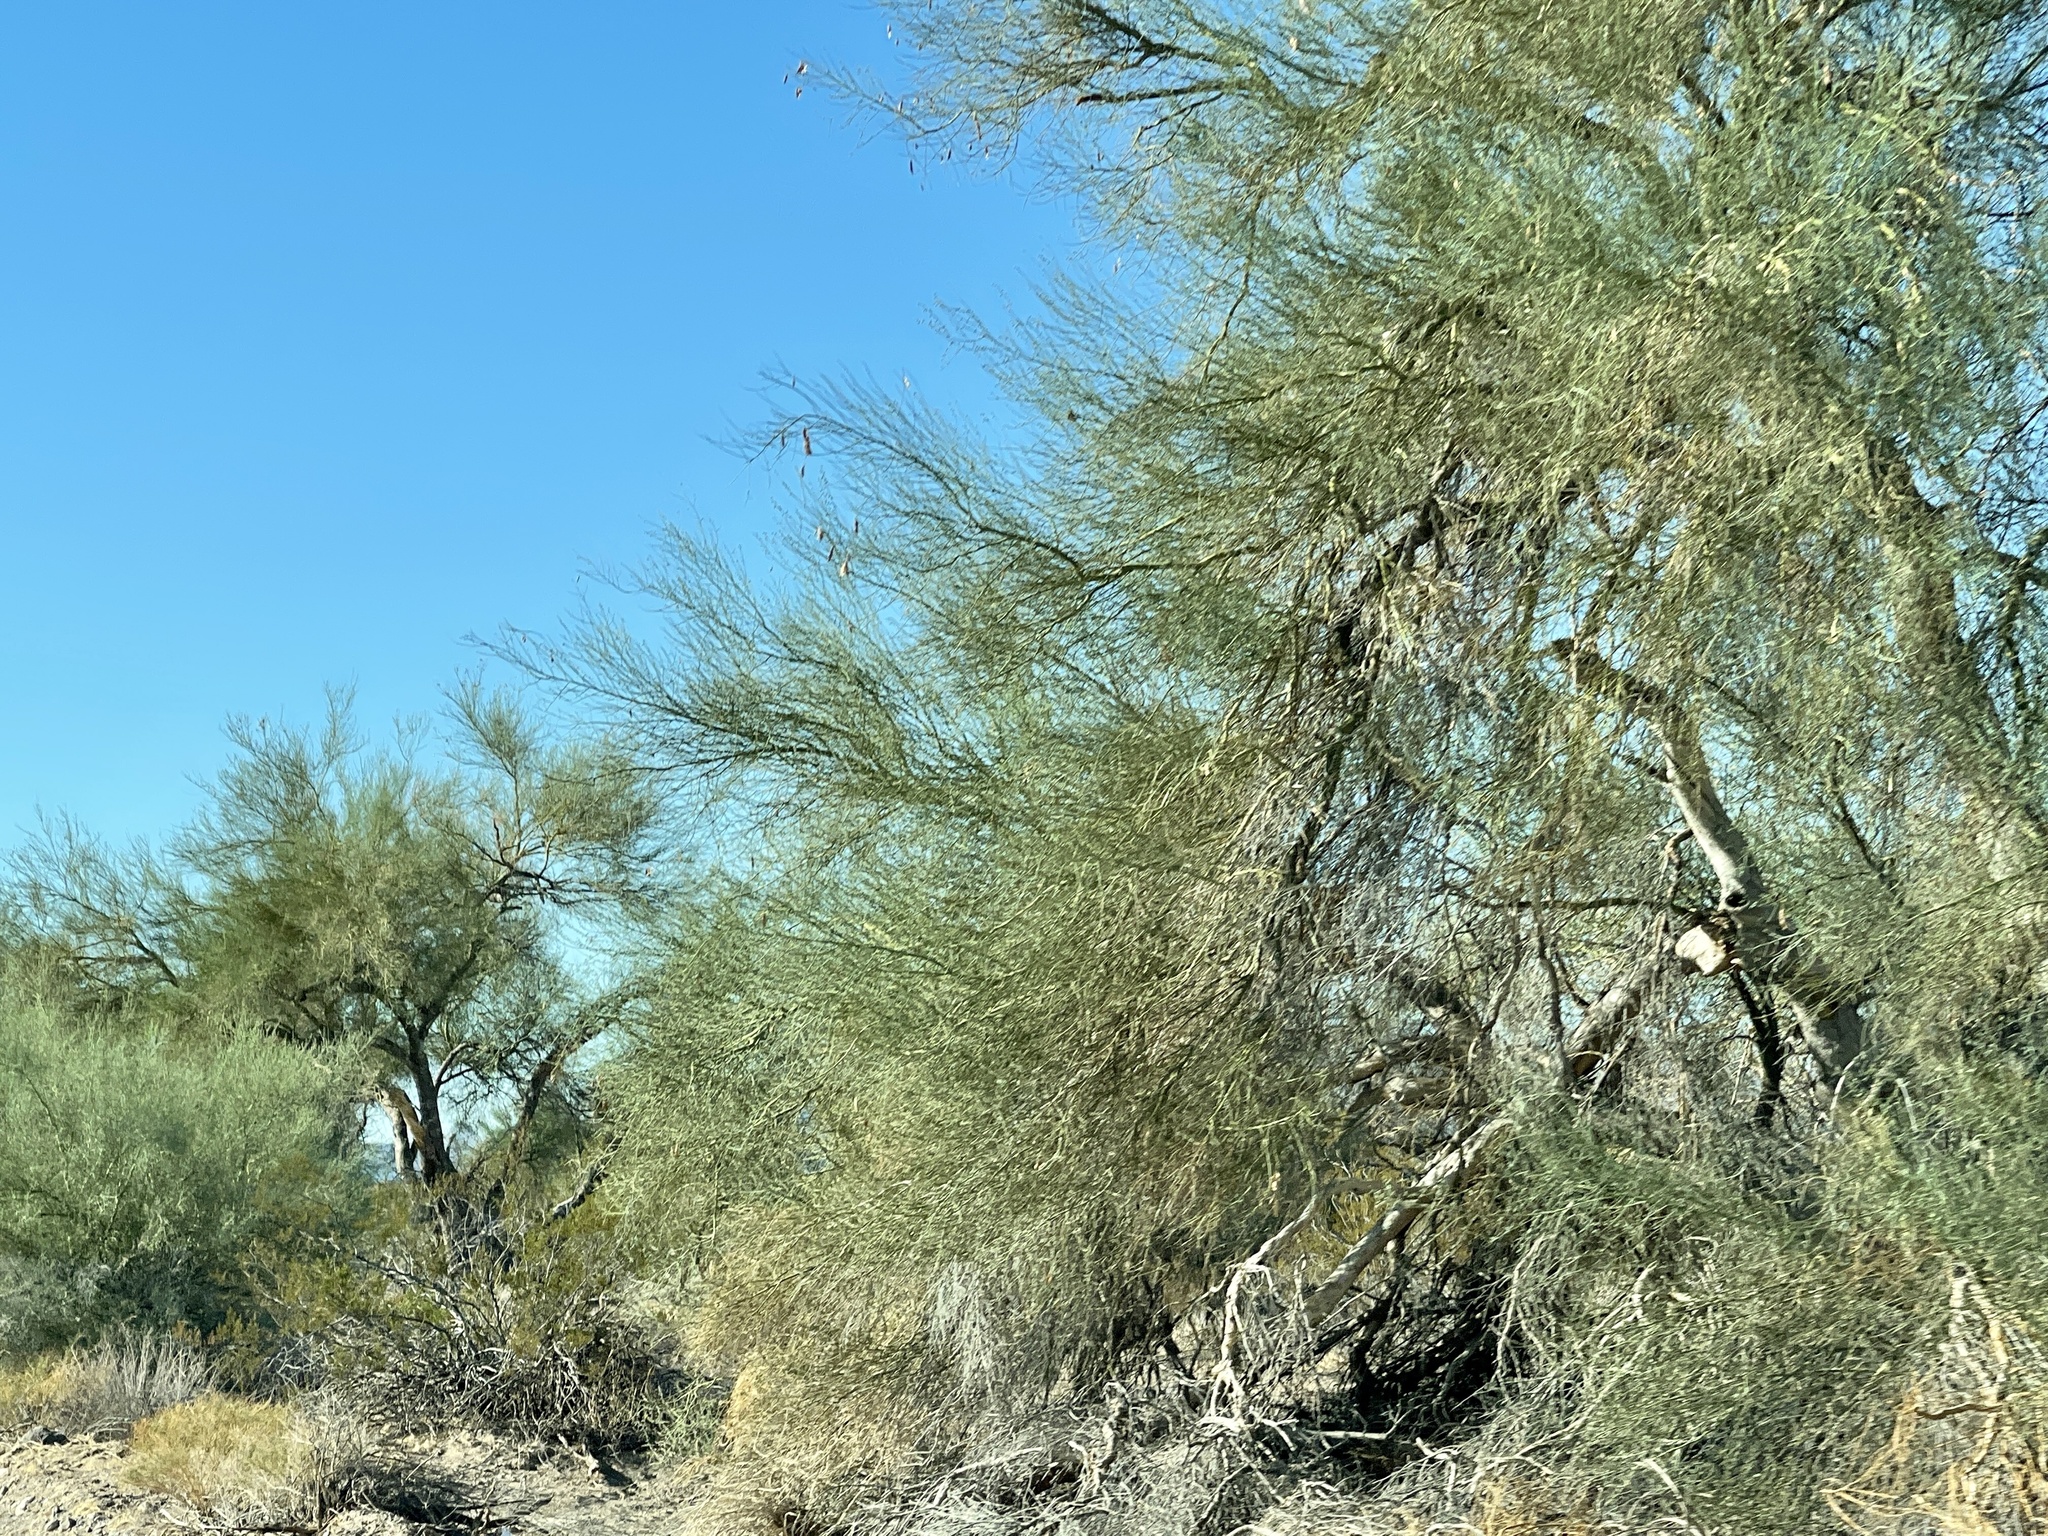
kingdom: Plantae
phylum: Tracheophyta
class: Magnoliopsida
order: Fabales
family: Fabaceae
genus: Parkinsonia
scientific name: Parkinsonia florida
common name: Blue paloverde
